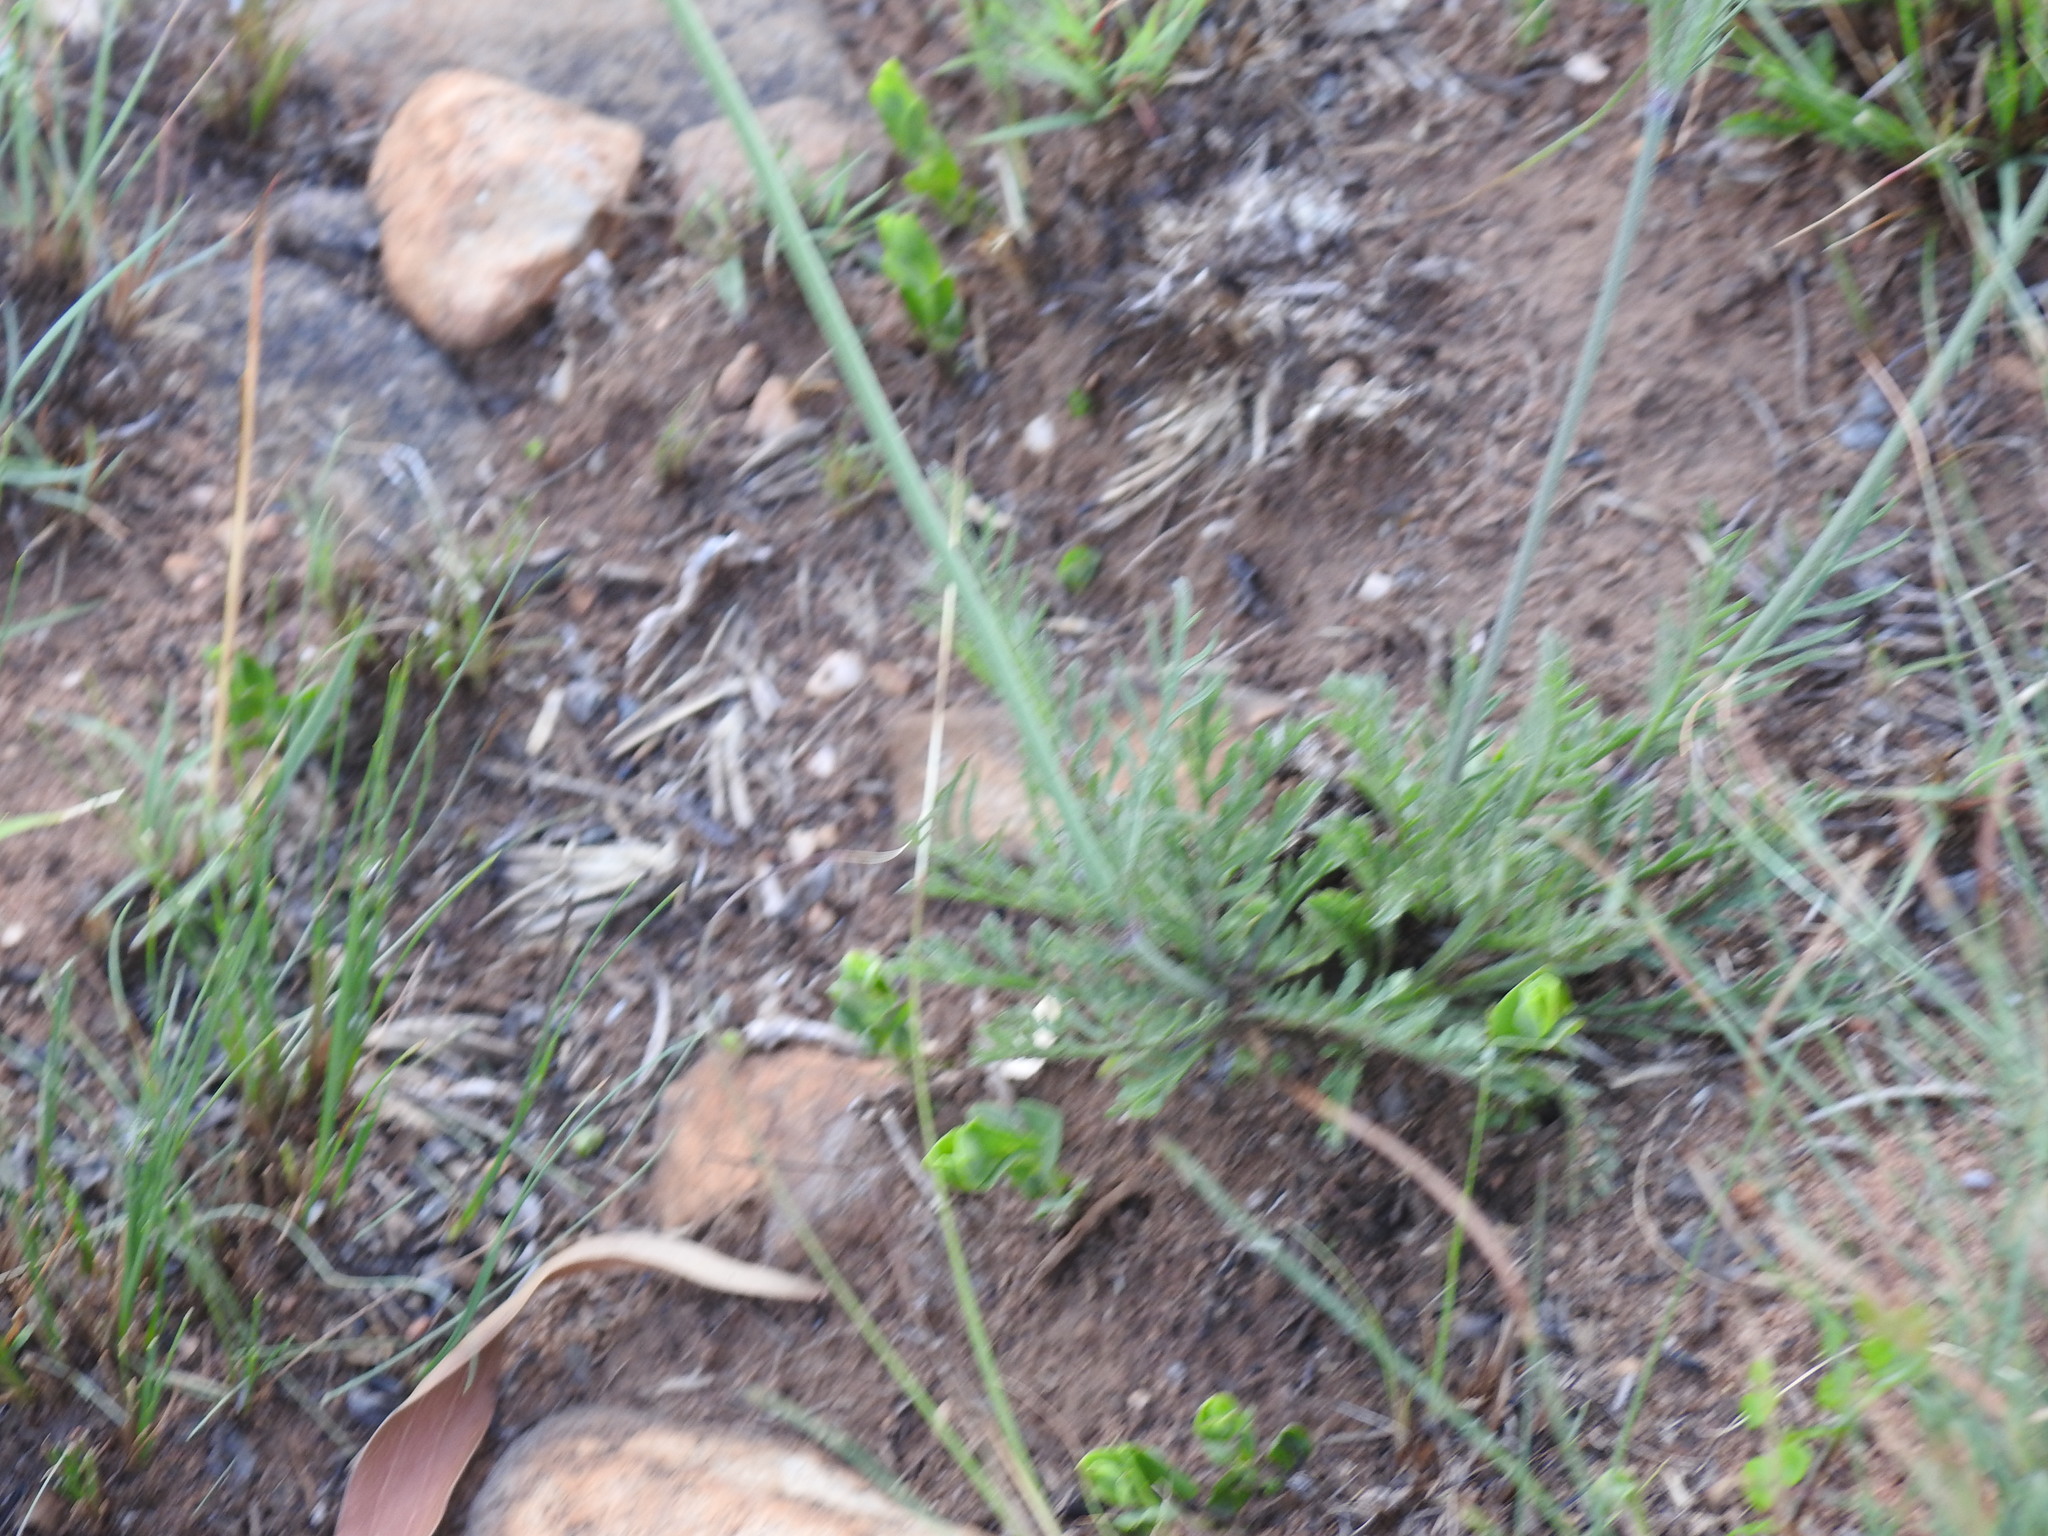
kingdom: Plantae
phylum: Tracheophyta
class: Magnoliopsida
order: Dipsacales
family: Caprifoliaceae
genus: Scabiosa
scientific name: Scabiosa columbaria
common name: Small scabious
